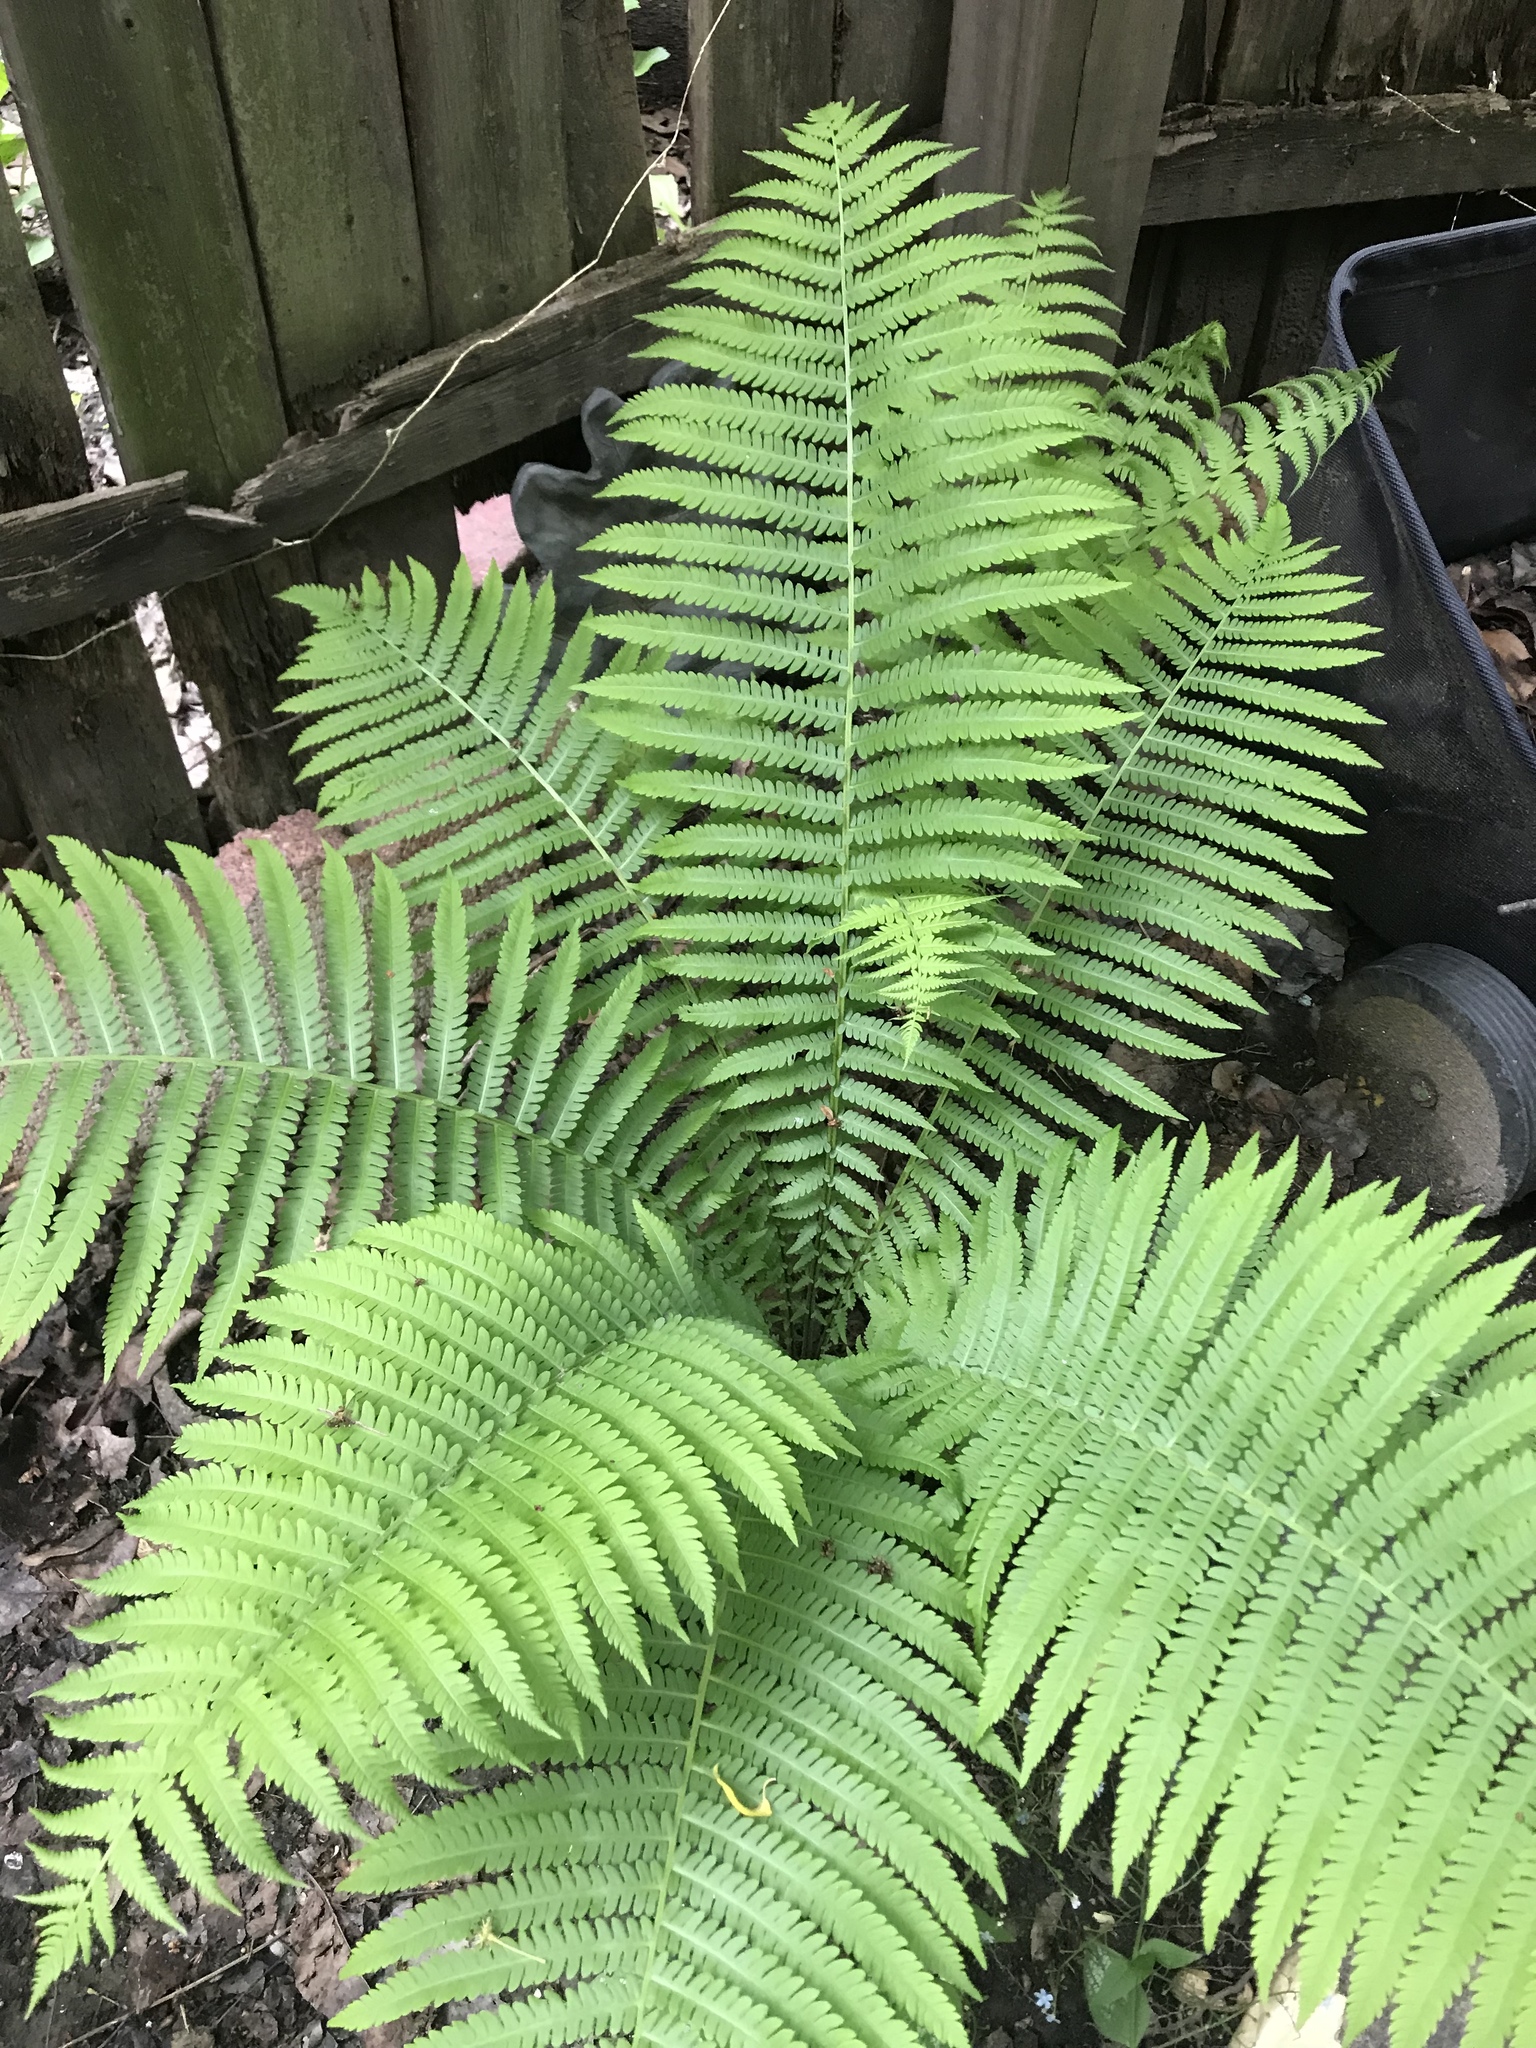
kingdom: Plantae
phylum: Tracheophyta
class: Polypodiopsida
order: Polypodiales
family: Onocleaceae
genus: Matteuccia
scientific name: Matteuccia struthiopteris
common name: Ostrich fern
